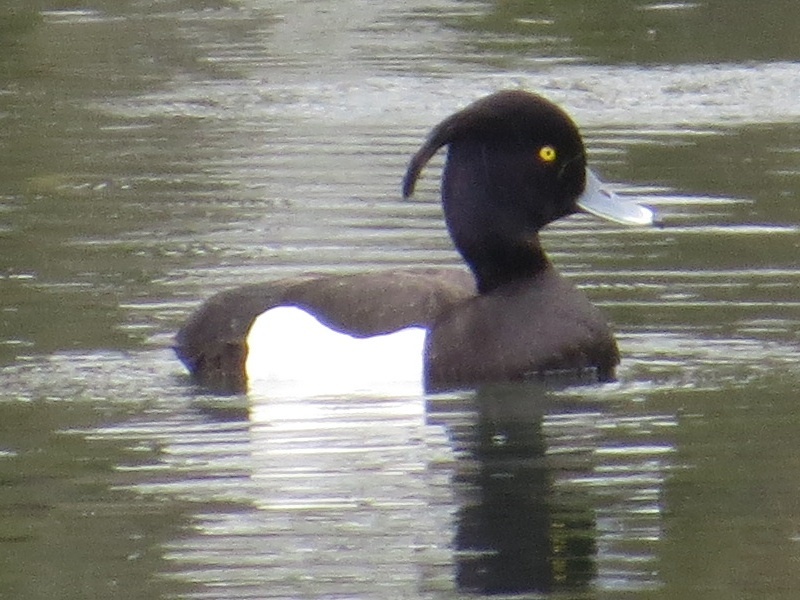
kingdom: Animalia
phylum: Chordata
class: Aves
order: Anseriformes
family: Anatidae
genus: Aythya
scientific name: Aythya fuligula
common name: Tufted duck
